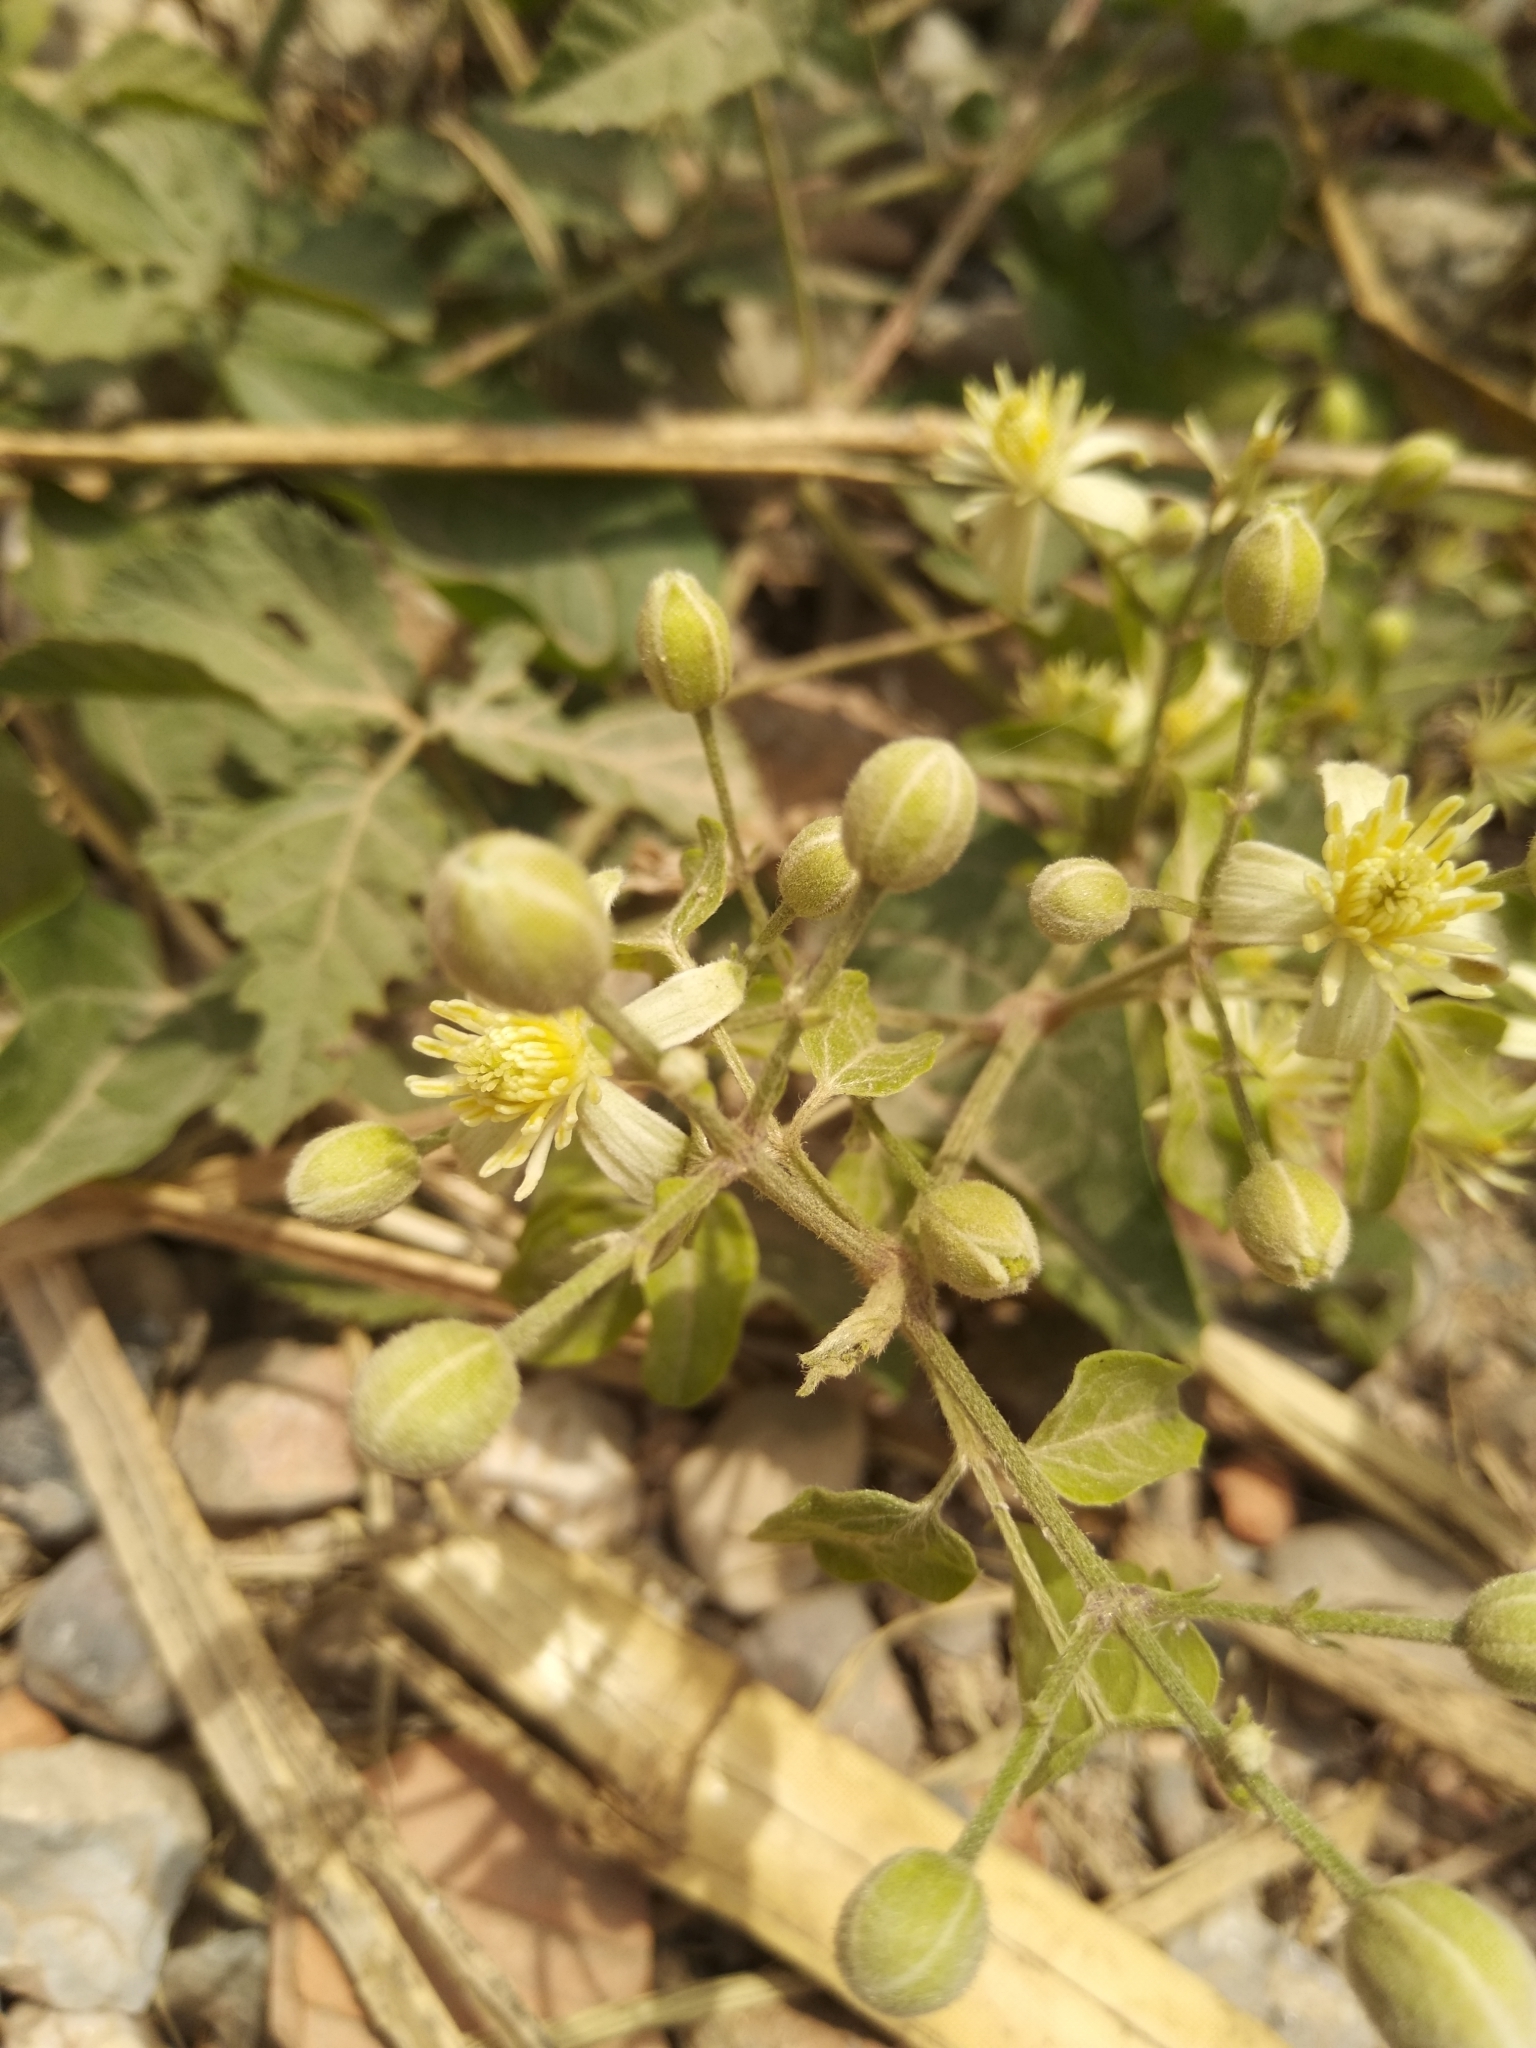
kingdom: Plantae
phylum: Tracheophyta
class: Magnoliopsida
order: Ranunculales
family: Ranunculaceae
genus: Clematis
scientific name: Clematis vitalba
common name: Evergreen clematis
